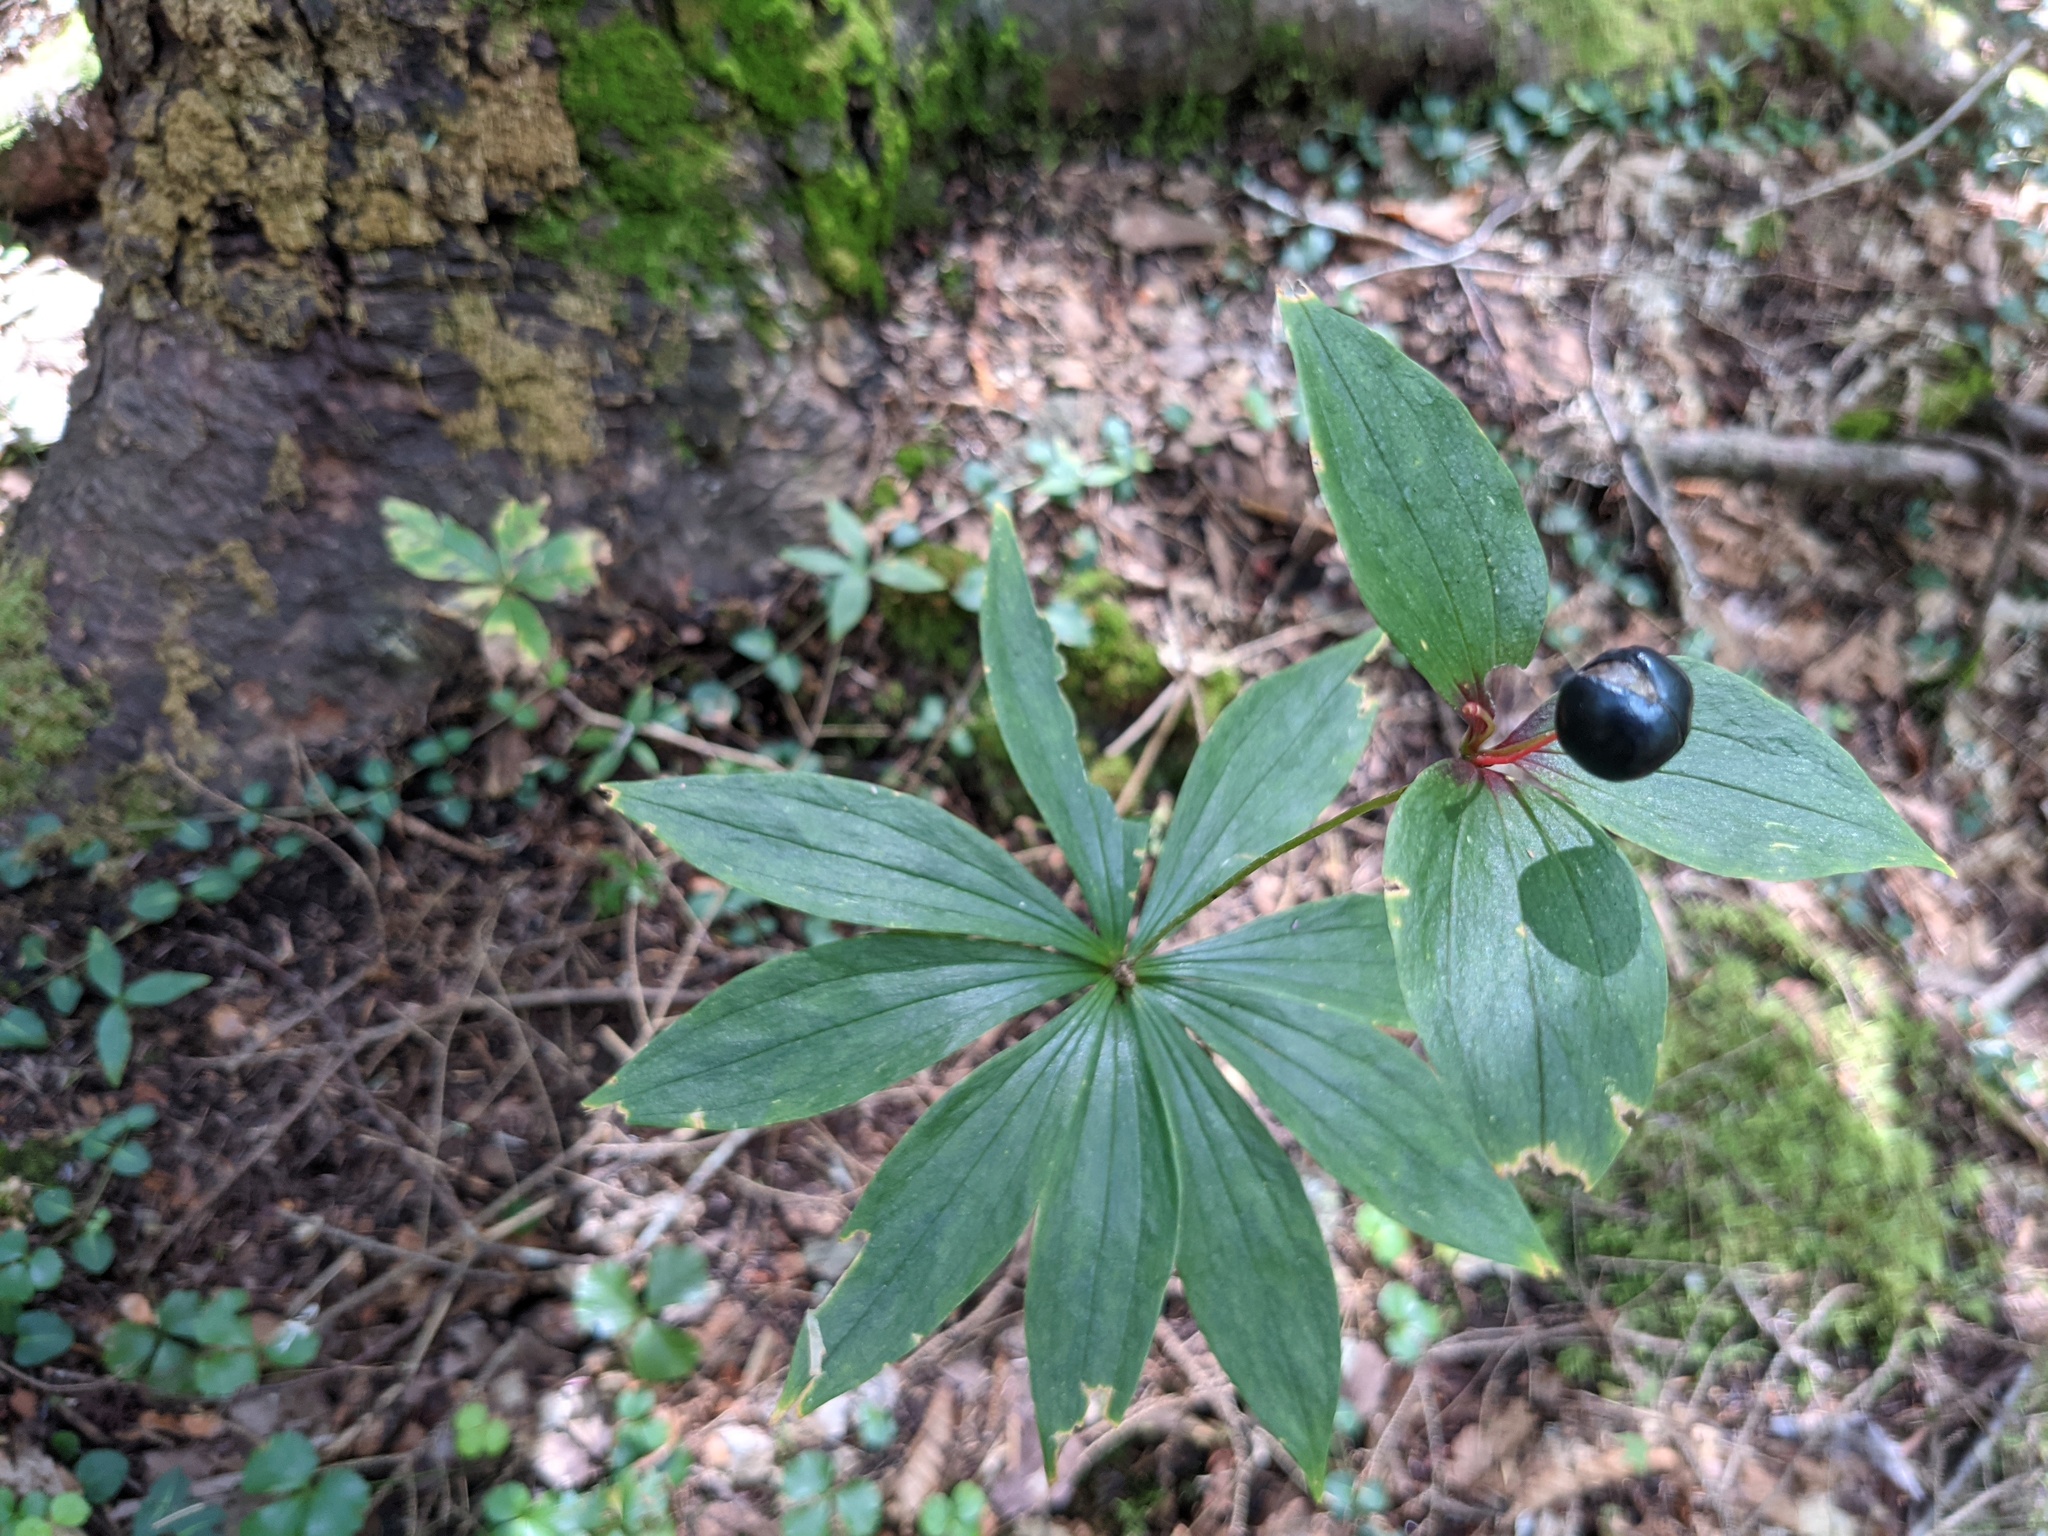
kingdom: Plantae
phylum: Tracheophyta
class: Liliopsida
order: Liliales
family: Liliaceae
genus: Medeola
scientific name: Medeola virginiana
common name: Indian cucumber-root
